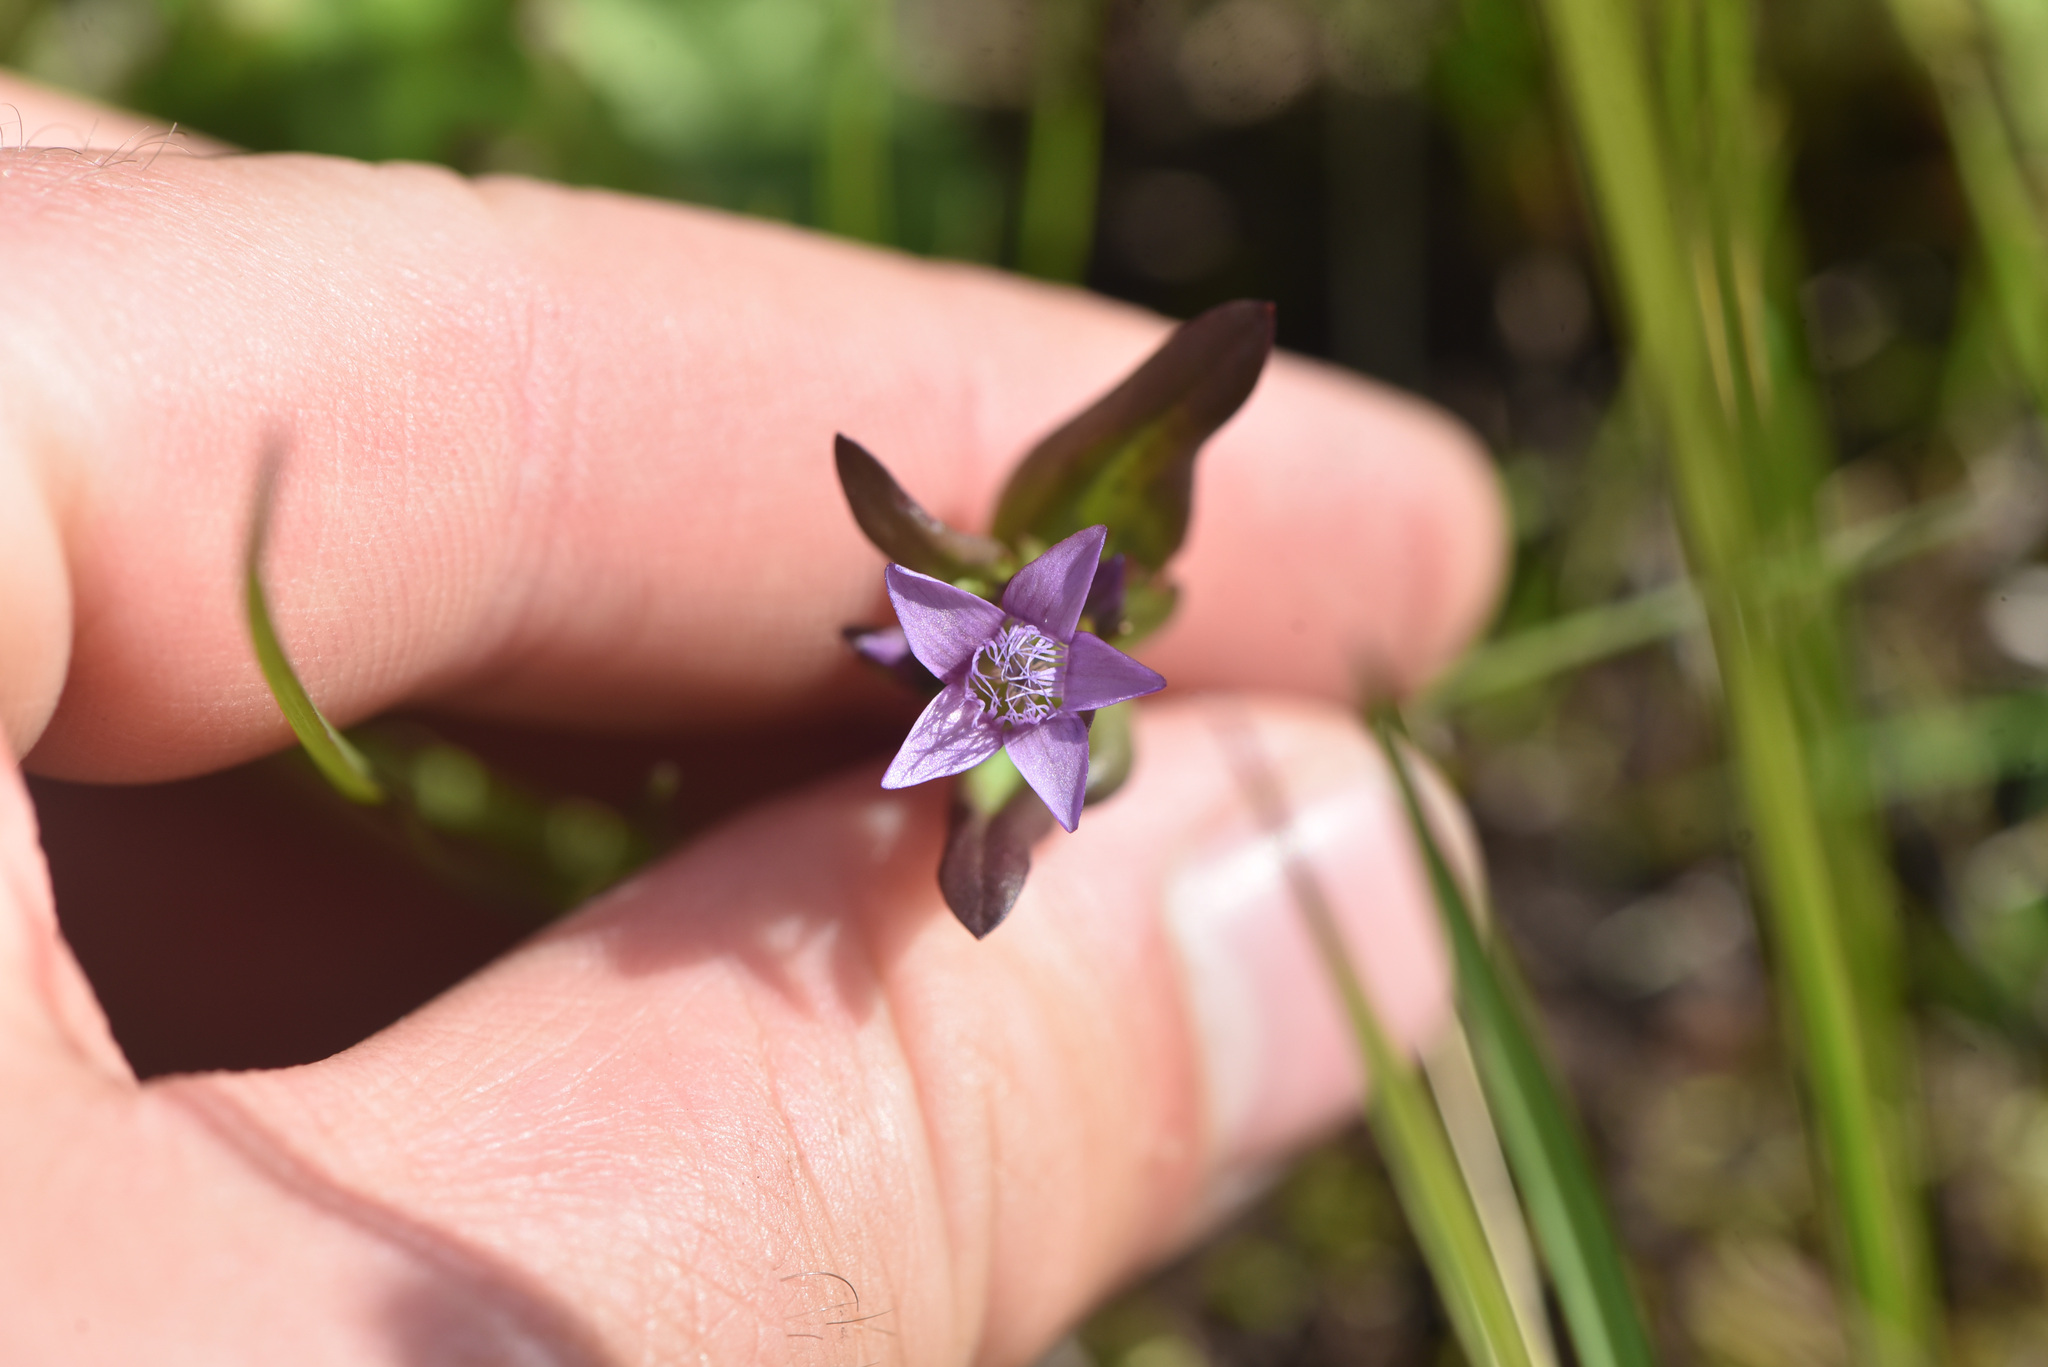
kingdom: Plantae
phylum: Tracheophyta
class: Magnoliopsida
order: Gentianales
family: Gentianaceae
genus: Gentianella
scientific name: Gentianella amarella
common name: Autumn gentian
